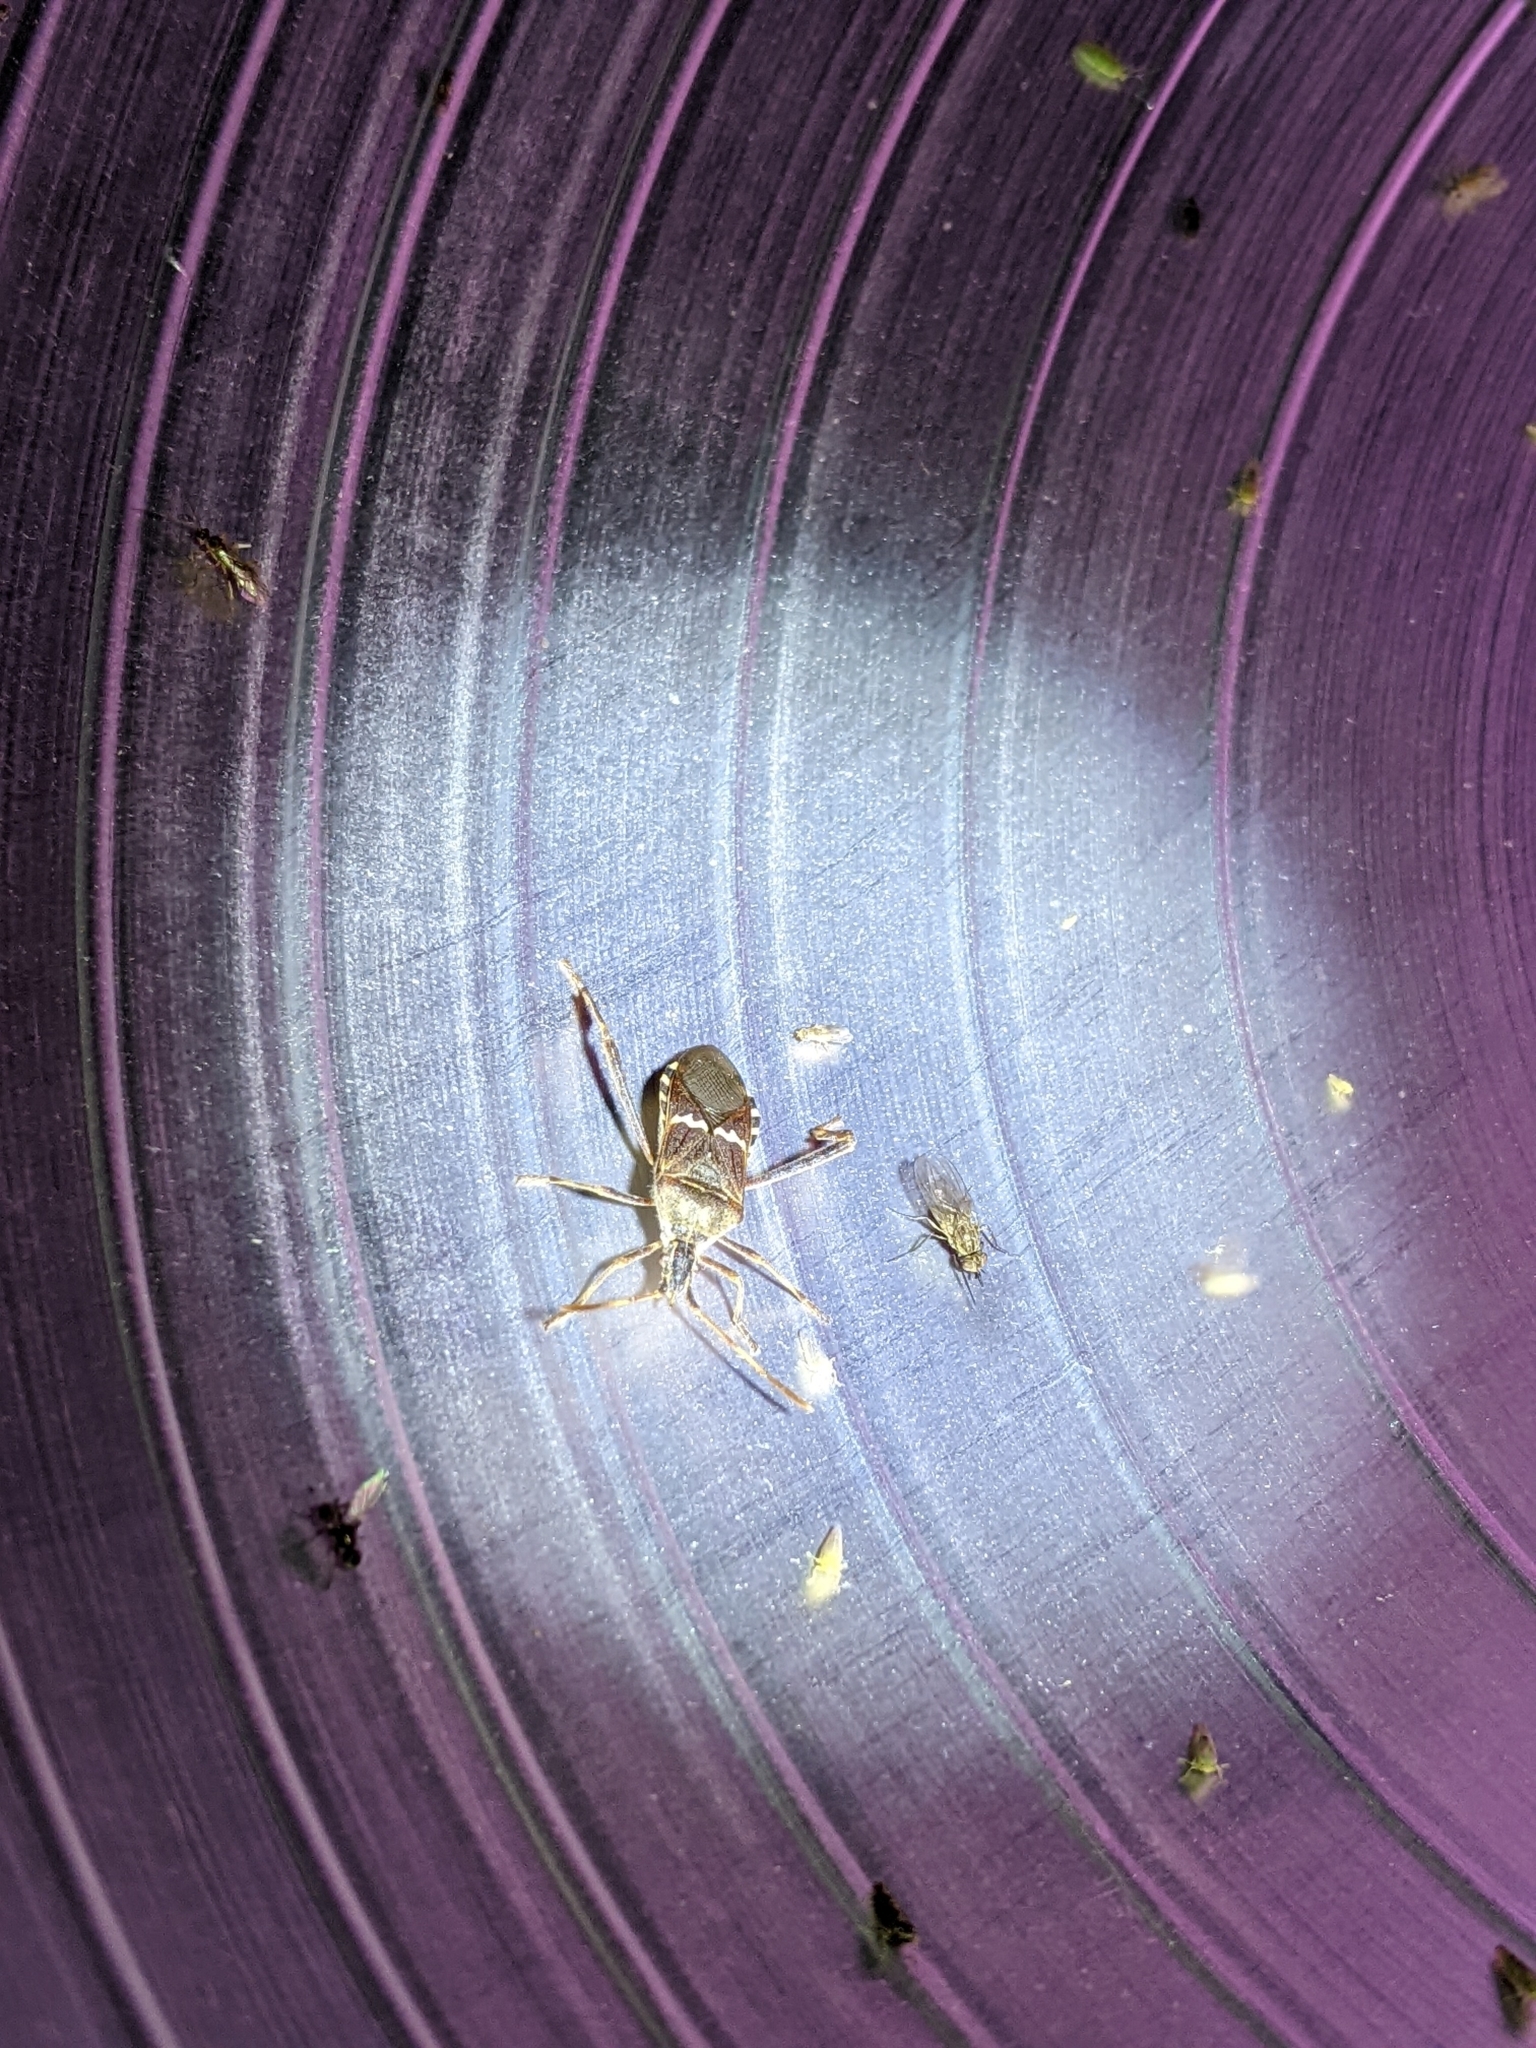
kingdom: Animalia
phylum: Arthropoda
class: Insecta
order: Hemiptera
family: Coreidae
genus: Leptoglossus
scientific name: Leptoglossus clypealis
